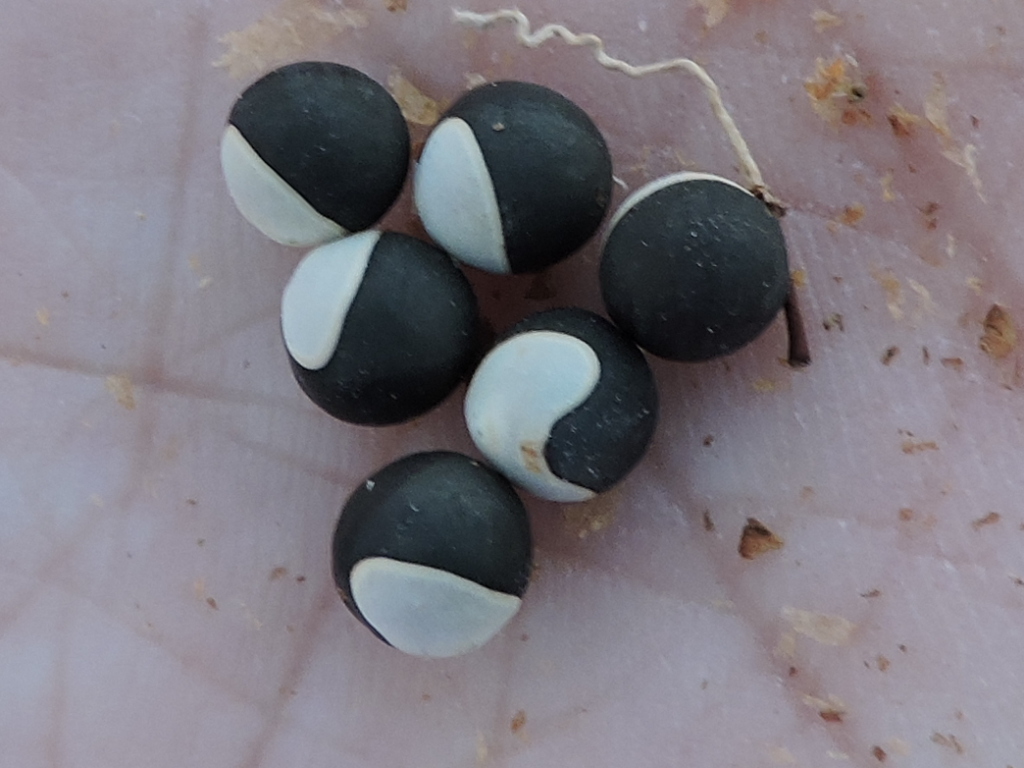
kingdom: Plantae
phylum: Tracheophyta
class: Magnoliopsida
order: Sapindales
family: Sapindaceae
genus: Cardiospermum
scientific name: Cardiospermum halicacabum
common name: Balloon vine
